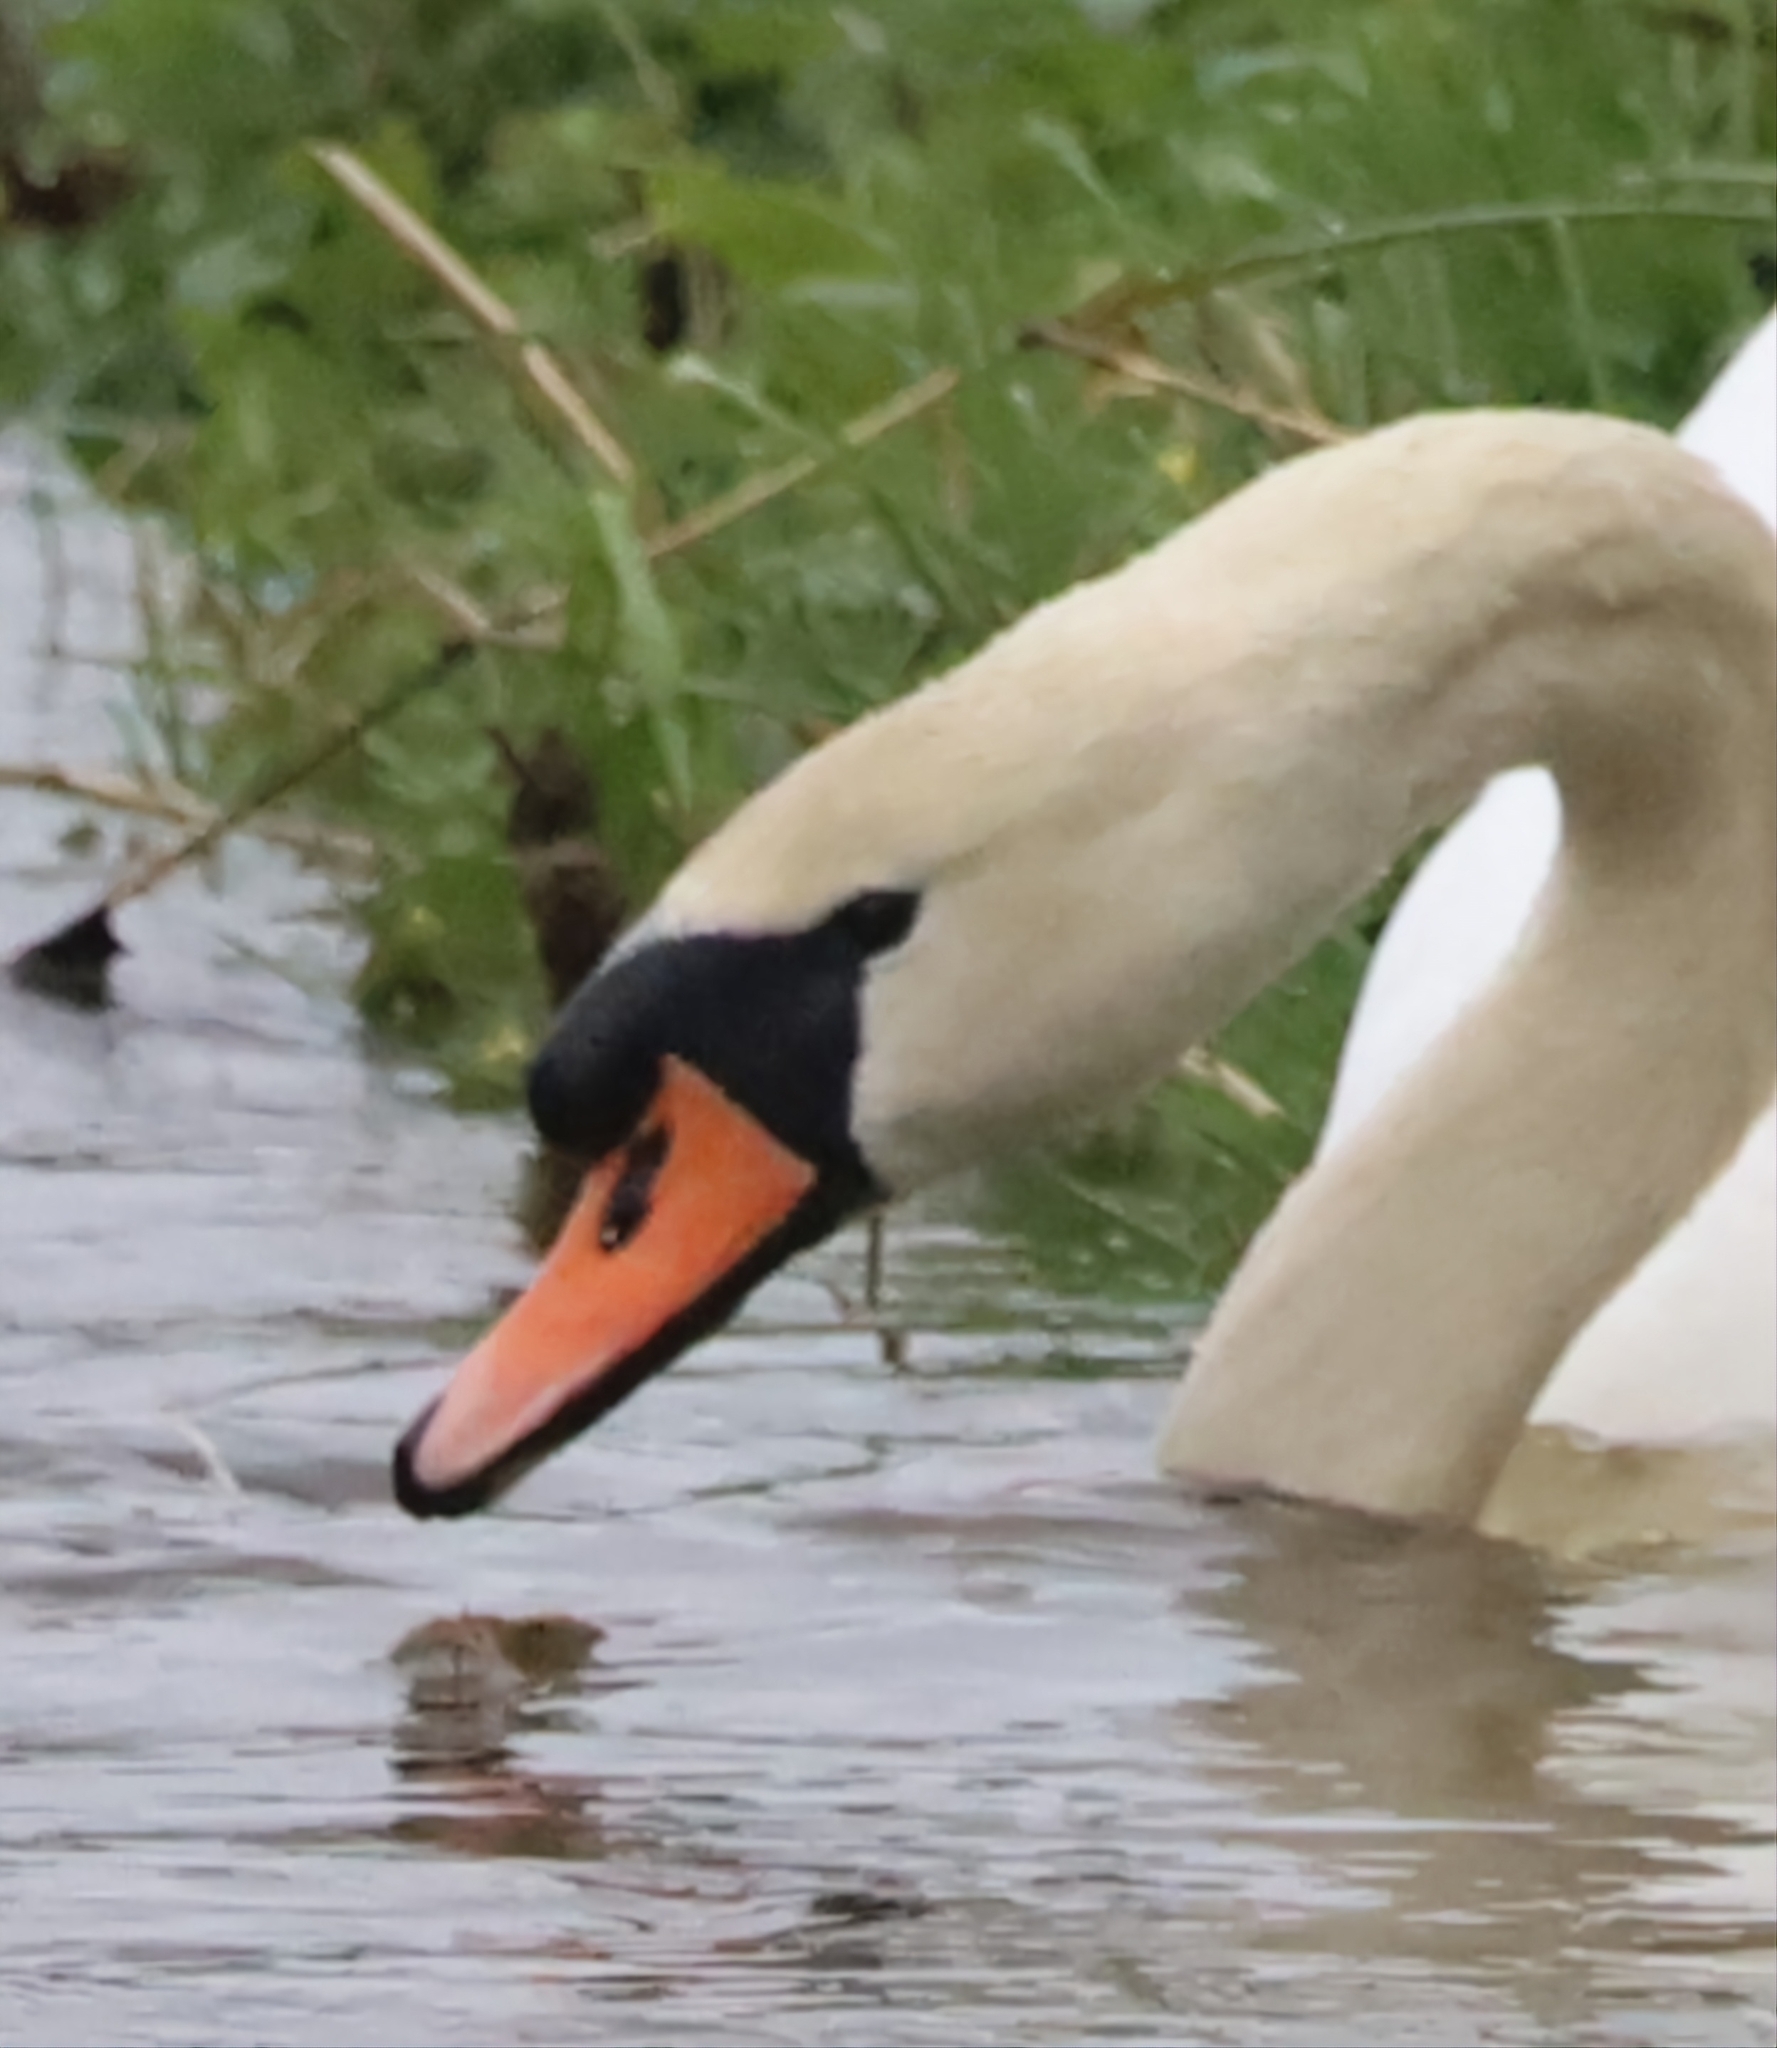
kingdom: Animalia
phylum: Chordata
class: Aves
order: Anseriformes
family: Anatidae
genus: Cygnus
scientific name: Cygnus olor
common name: Mute swan
